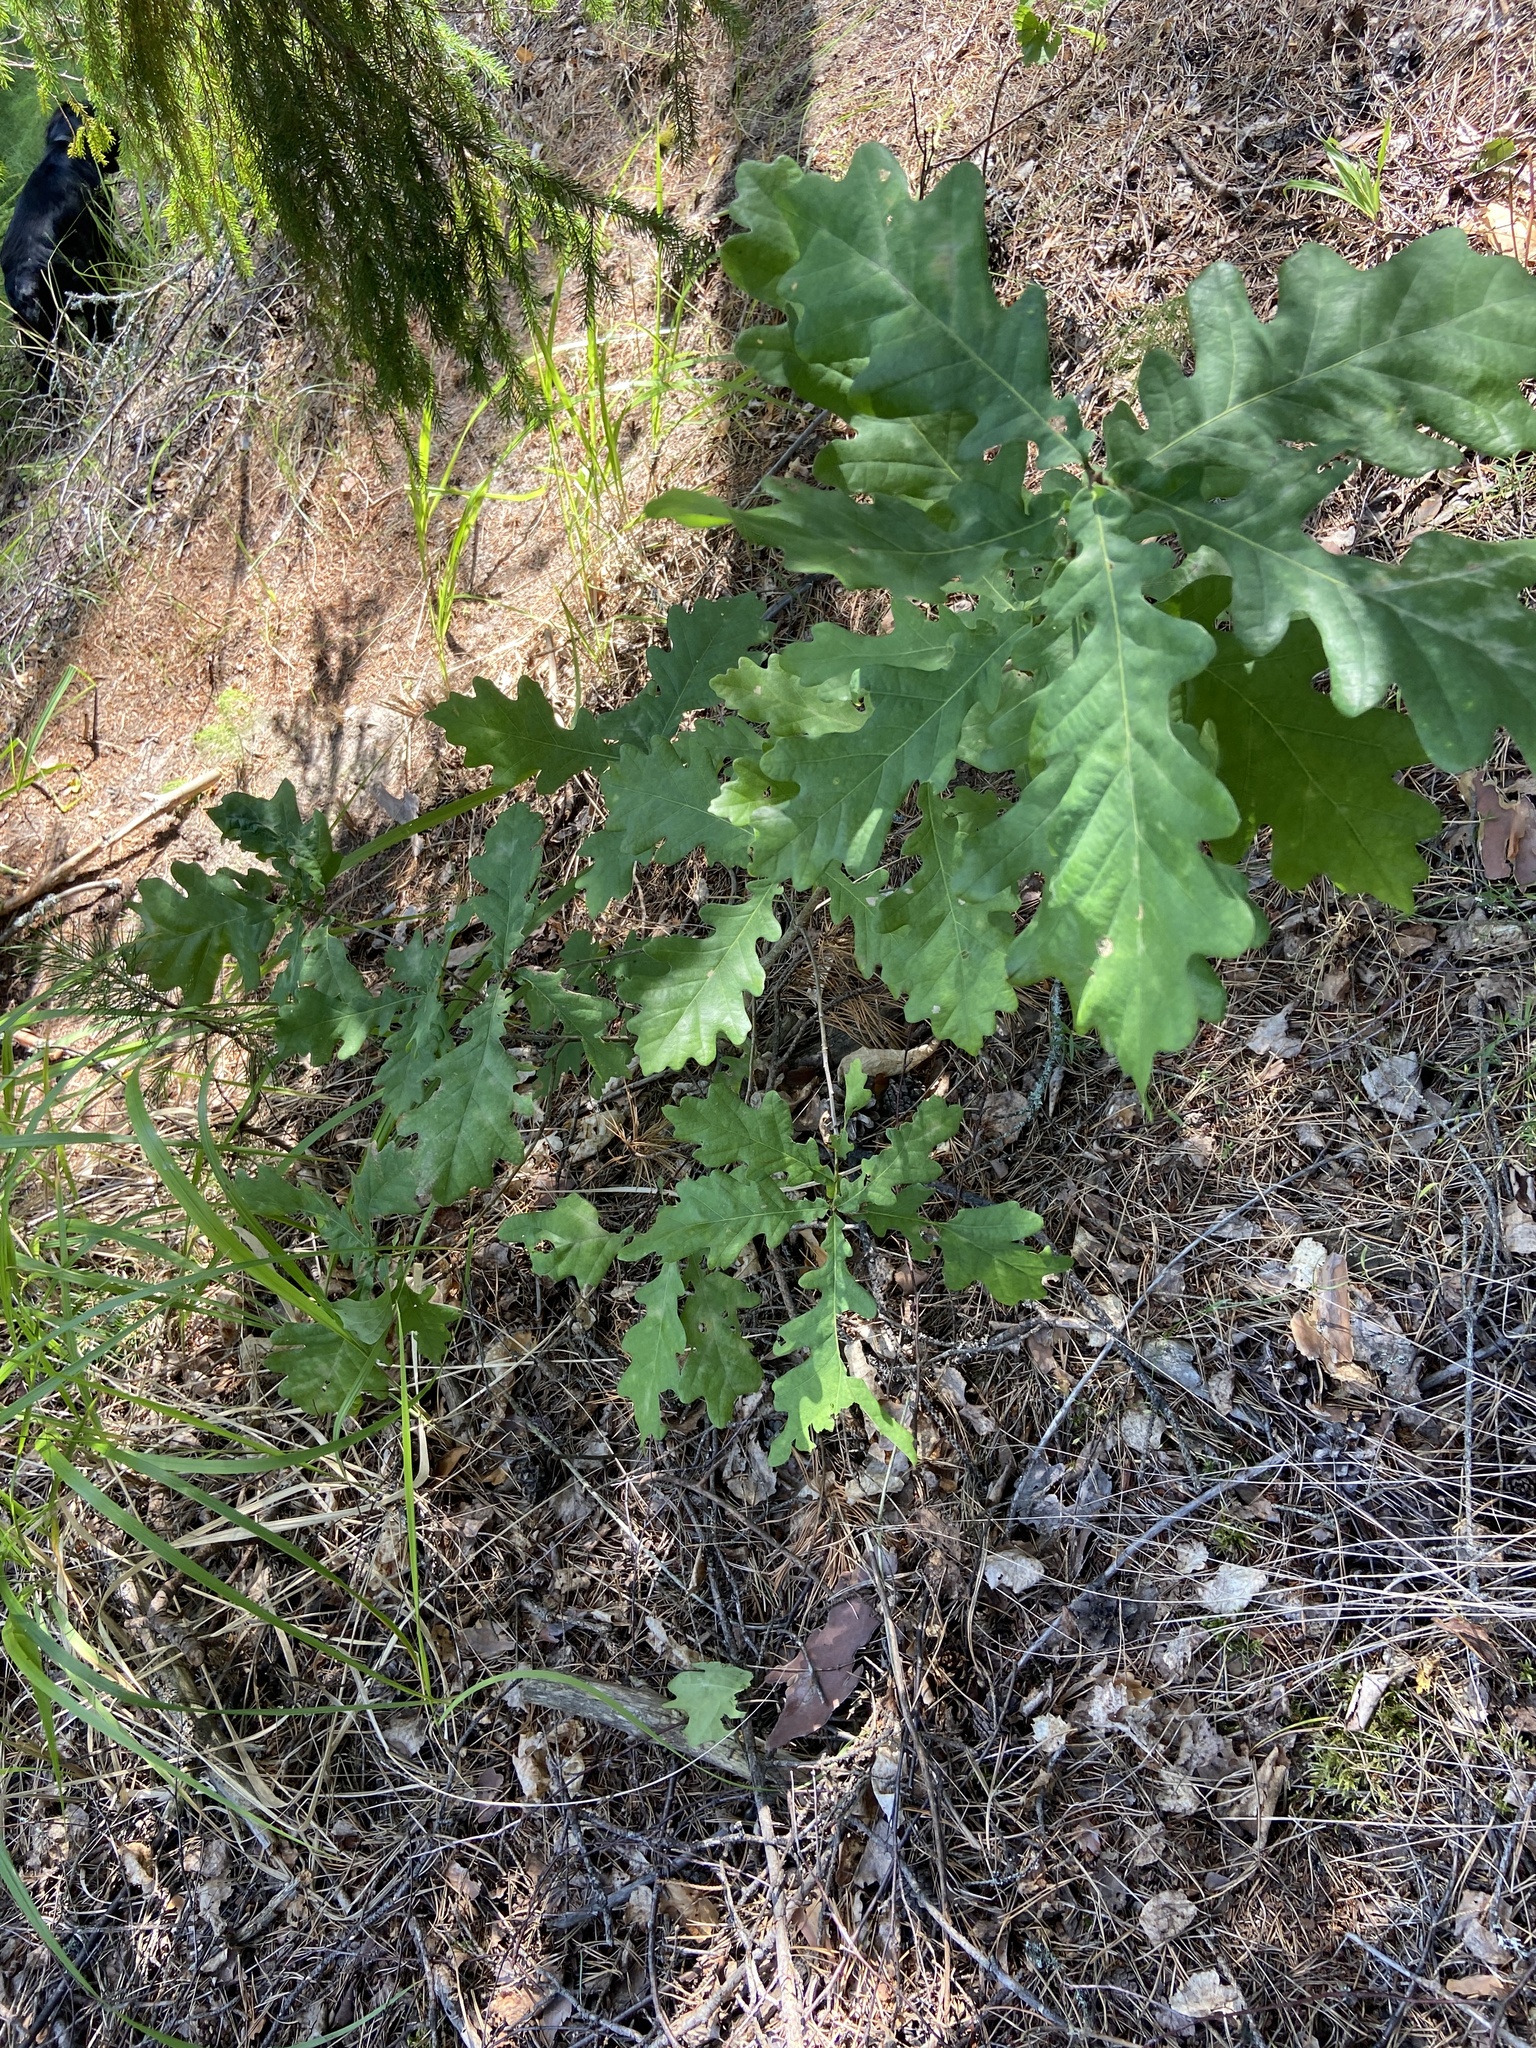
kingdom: Plantae
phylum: Tracheophyta
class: Magnoliopsida
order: Fagales
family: Fagaceae
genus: Quercus
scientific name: Quercus robur
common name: Pedunculate oak
